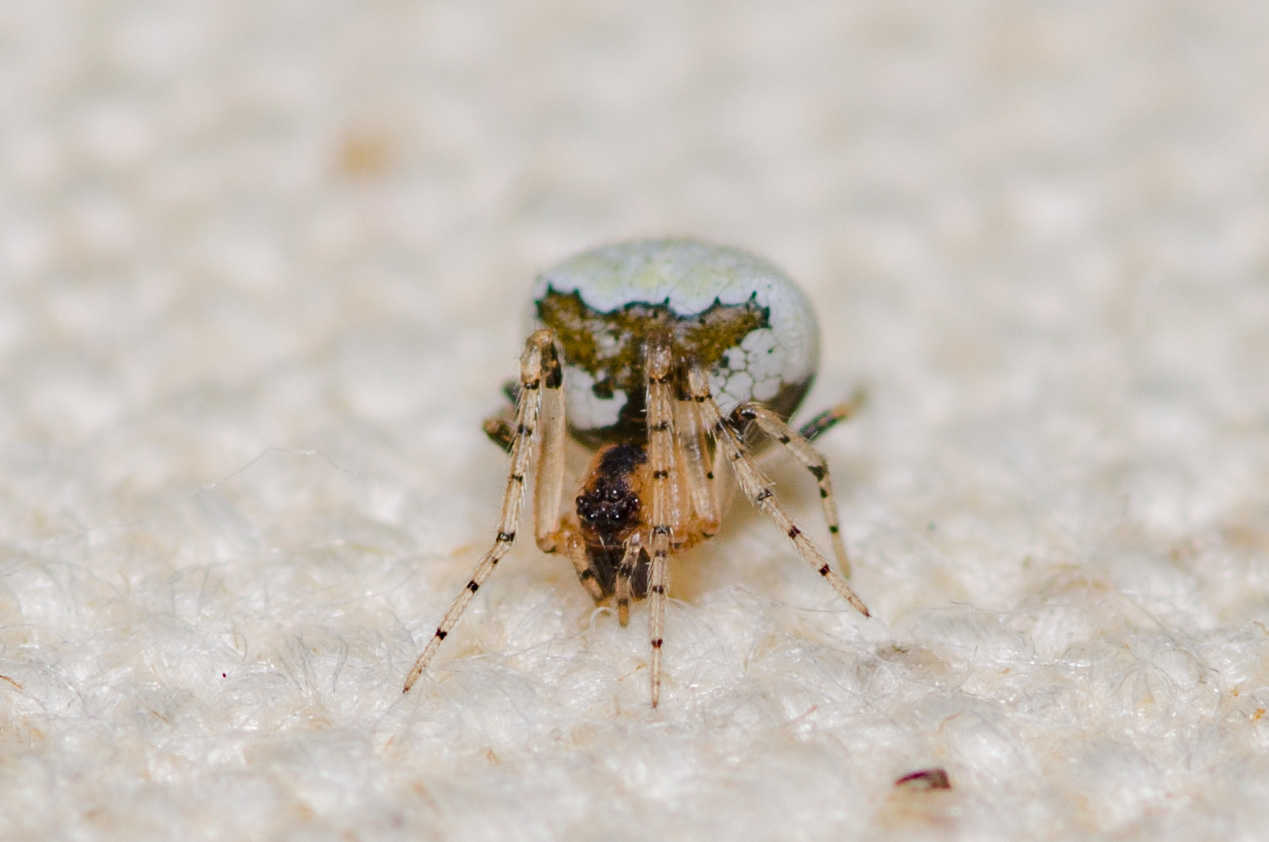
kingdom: Animalia
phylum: Arthropoda
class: Arachnida
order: Araneae
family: Theridiidae
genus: Wamba
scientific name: Wamba crispulus
